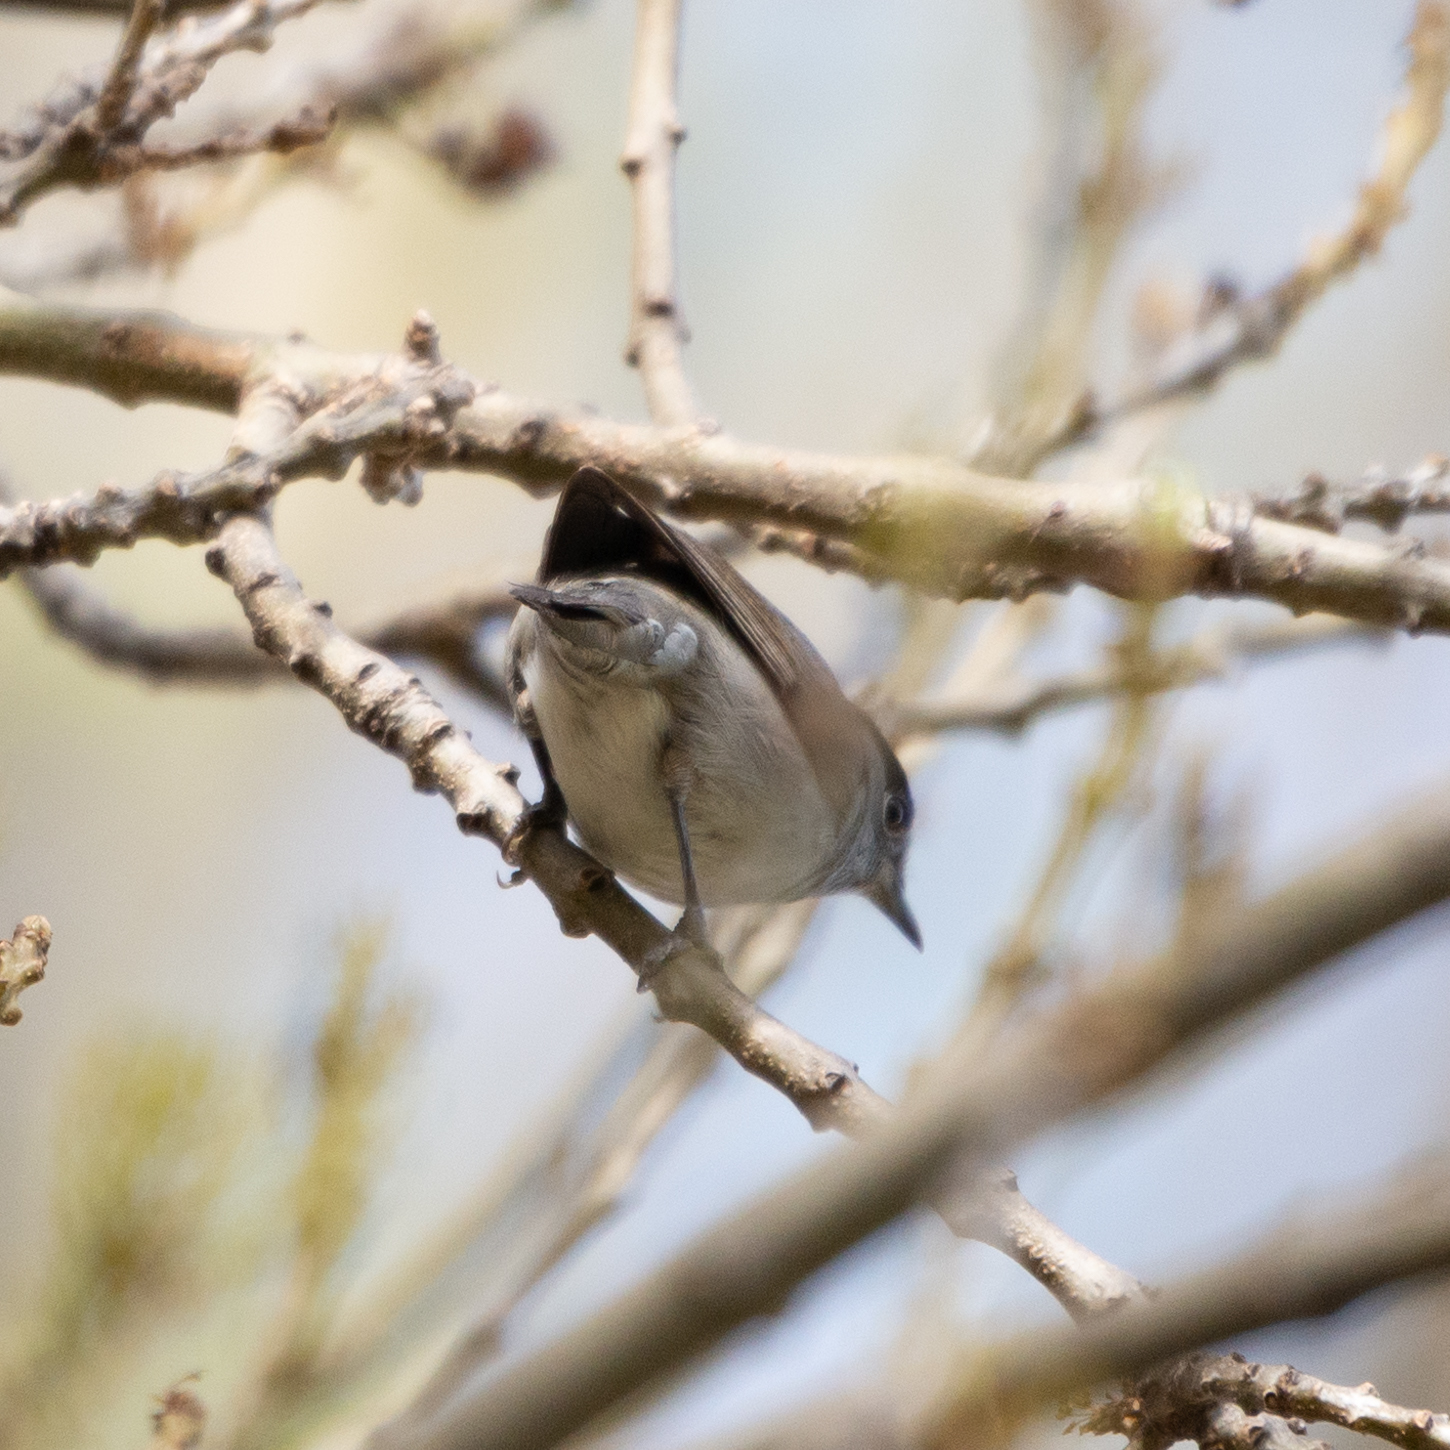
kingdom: Animalia
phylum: Chordata
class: Aves
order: Passeriformes
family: Sylviidae
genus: Sylvia
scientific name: Sylvia atricapilla
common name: Eurasian blackcap
